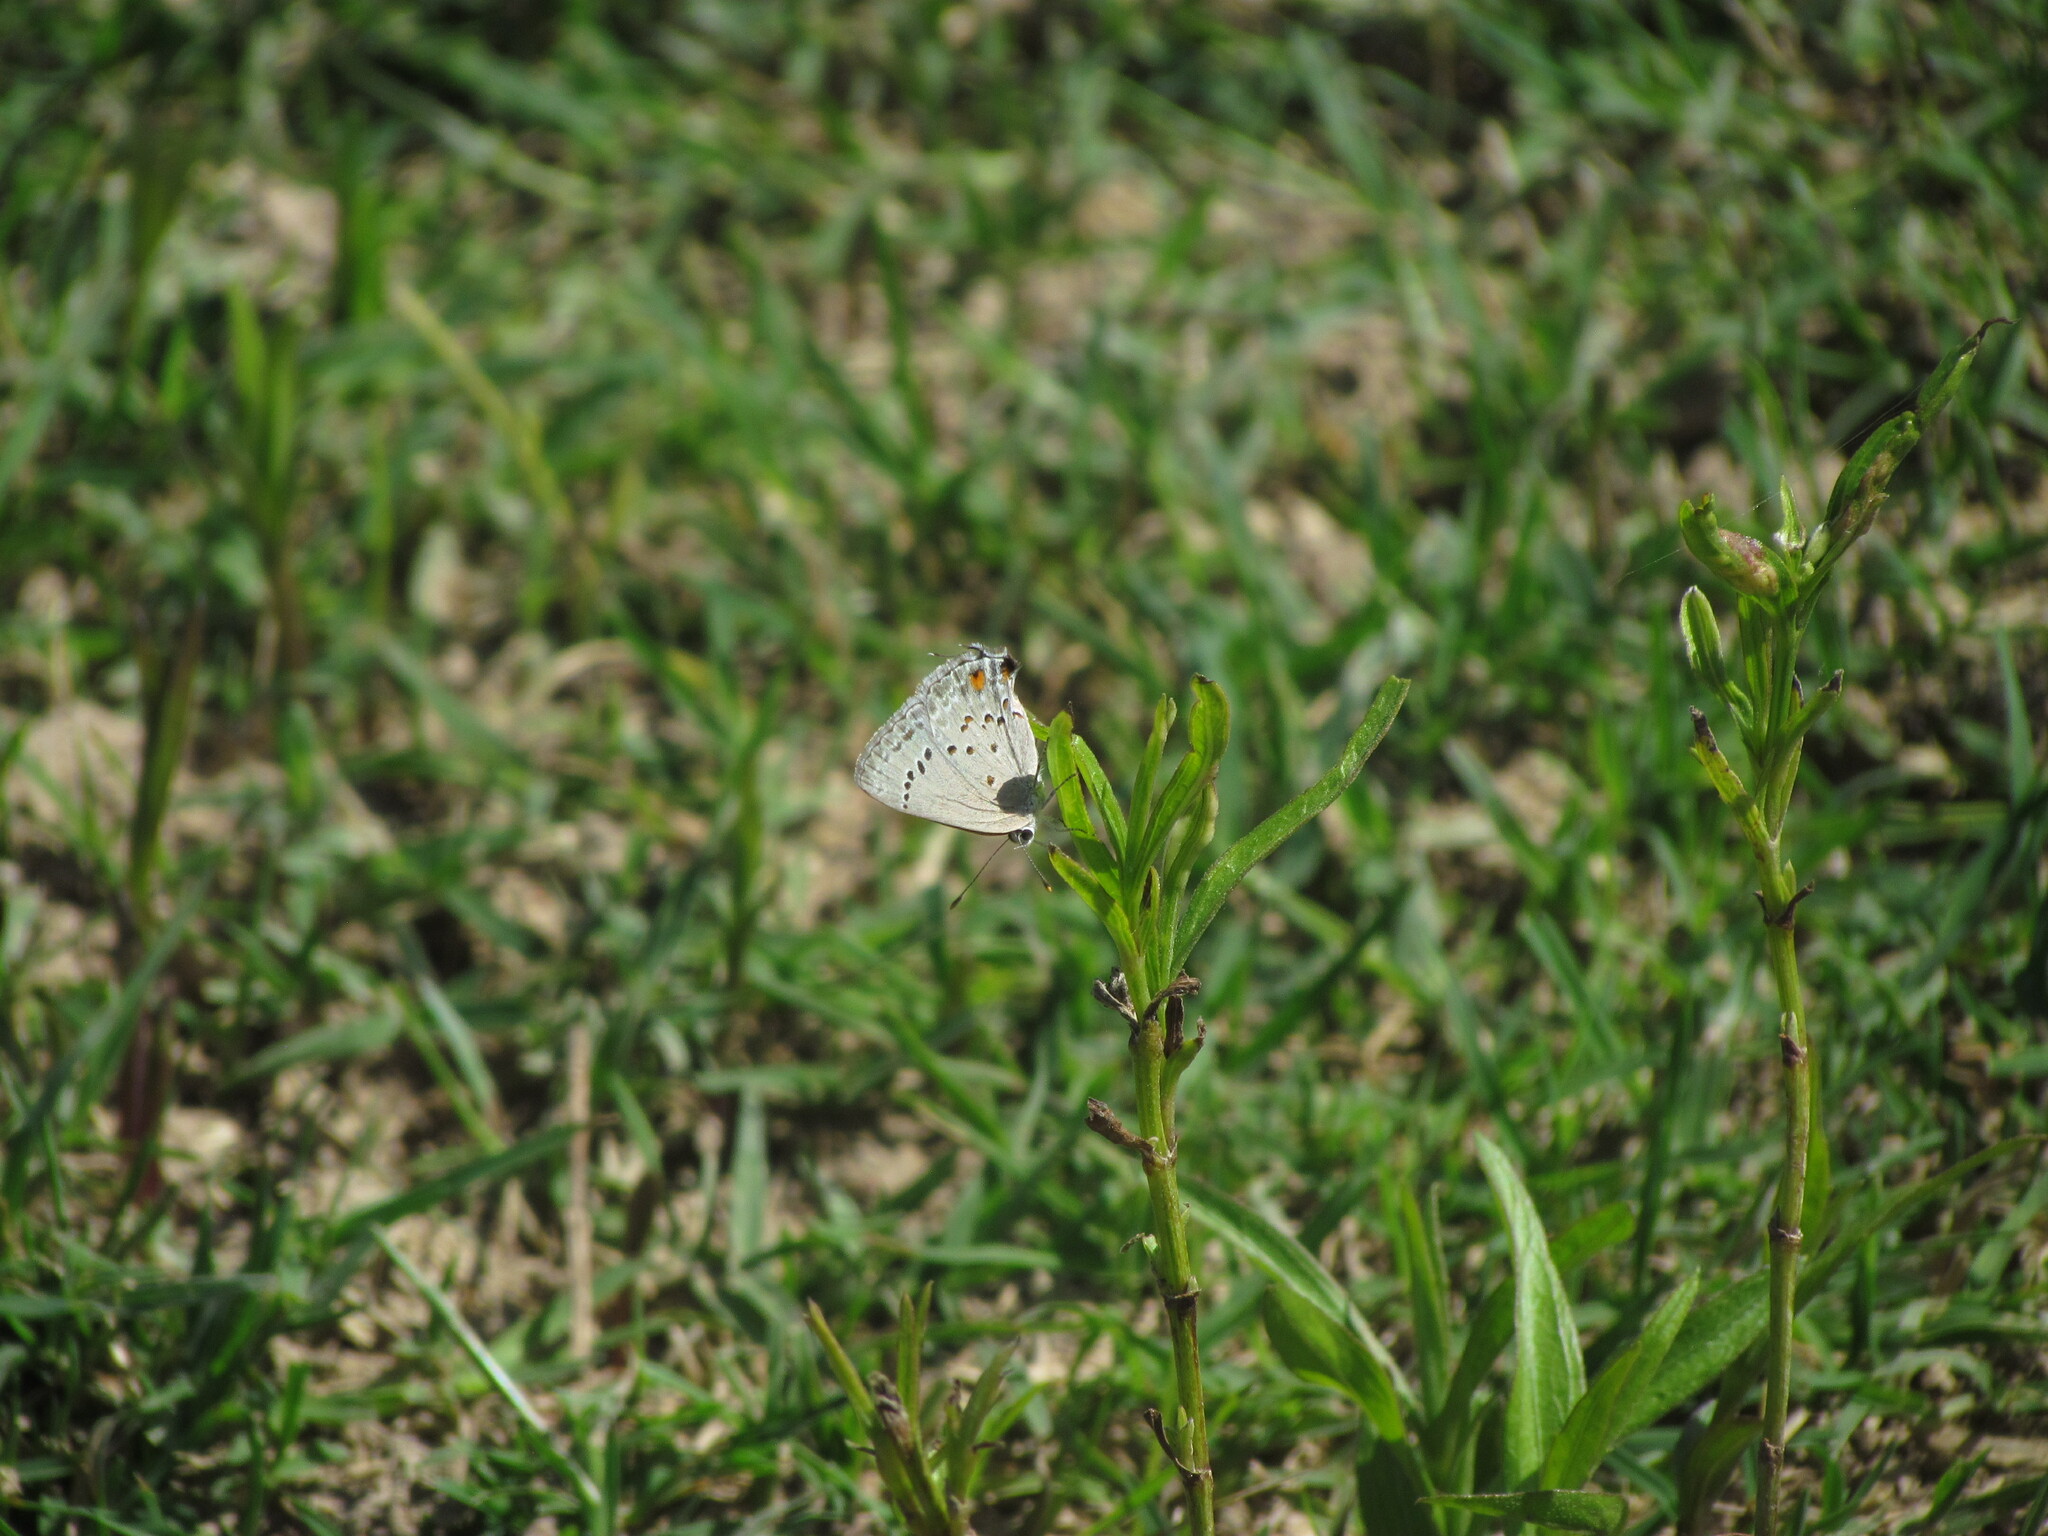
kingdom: Animalia
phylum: Arthropoda
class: Insecta
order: Lepidoptera
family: Lycaenidae
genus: Strymon
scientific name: Strymon eurytulus
